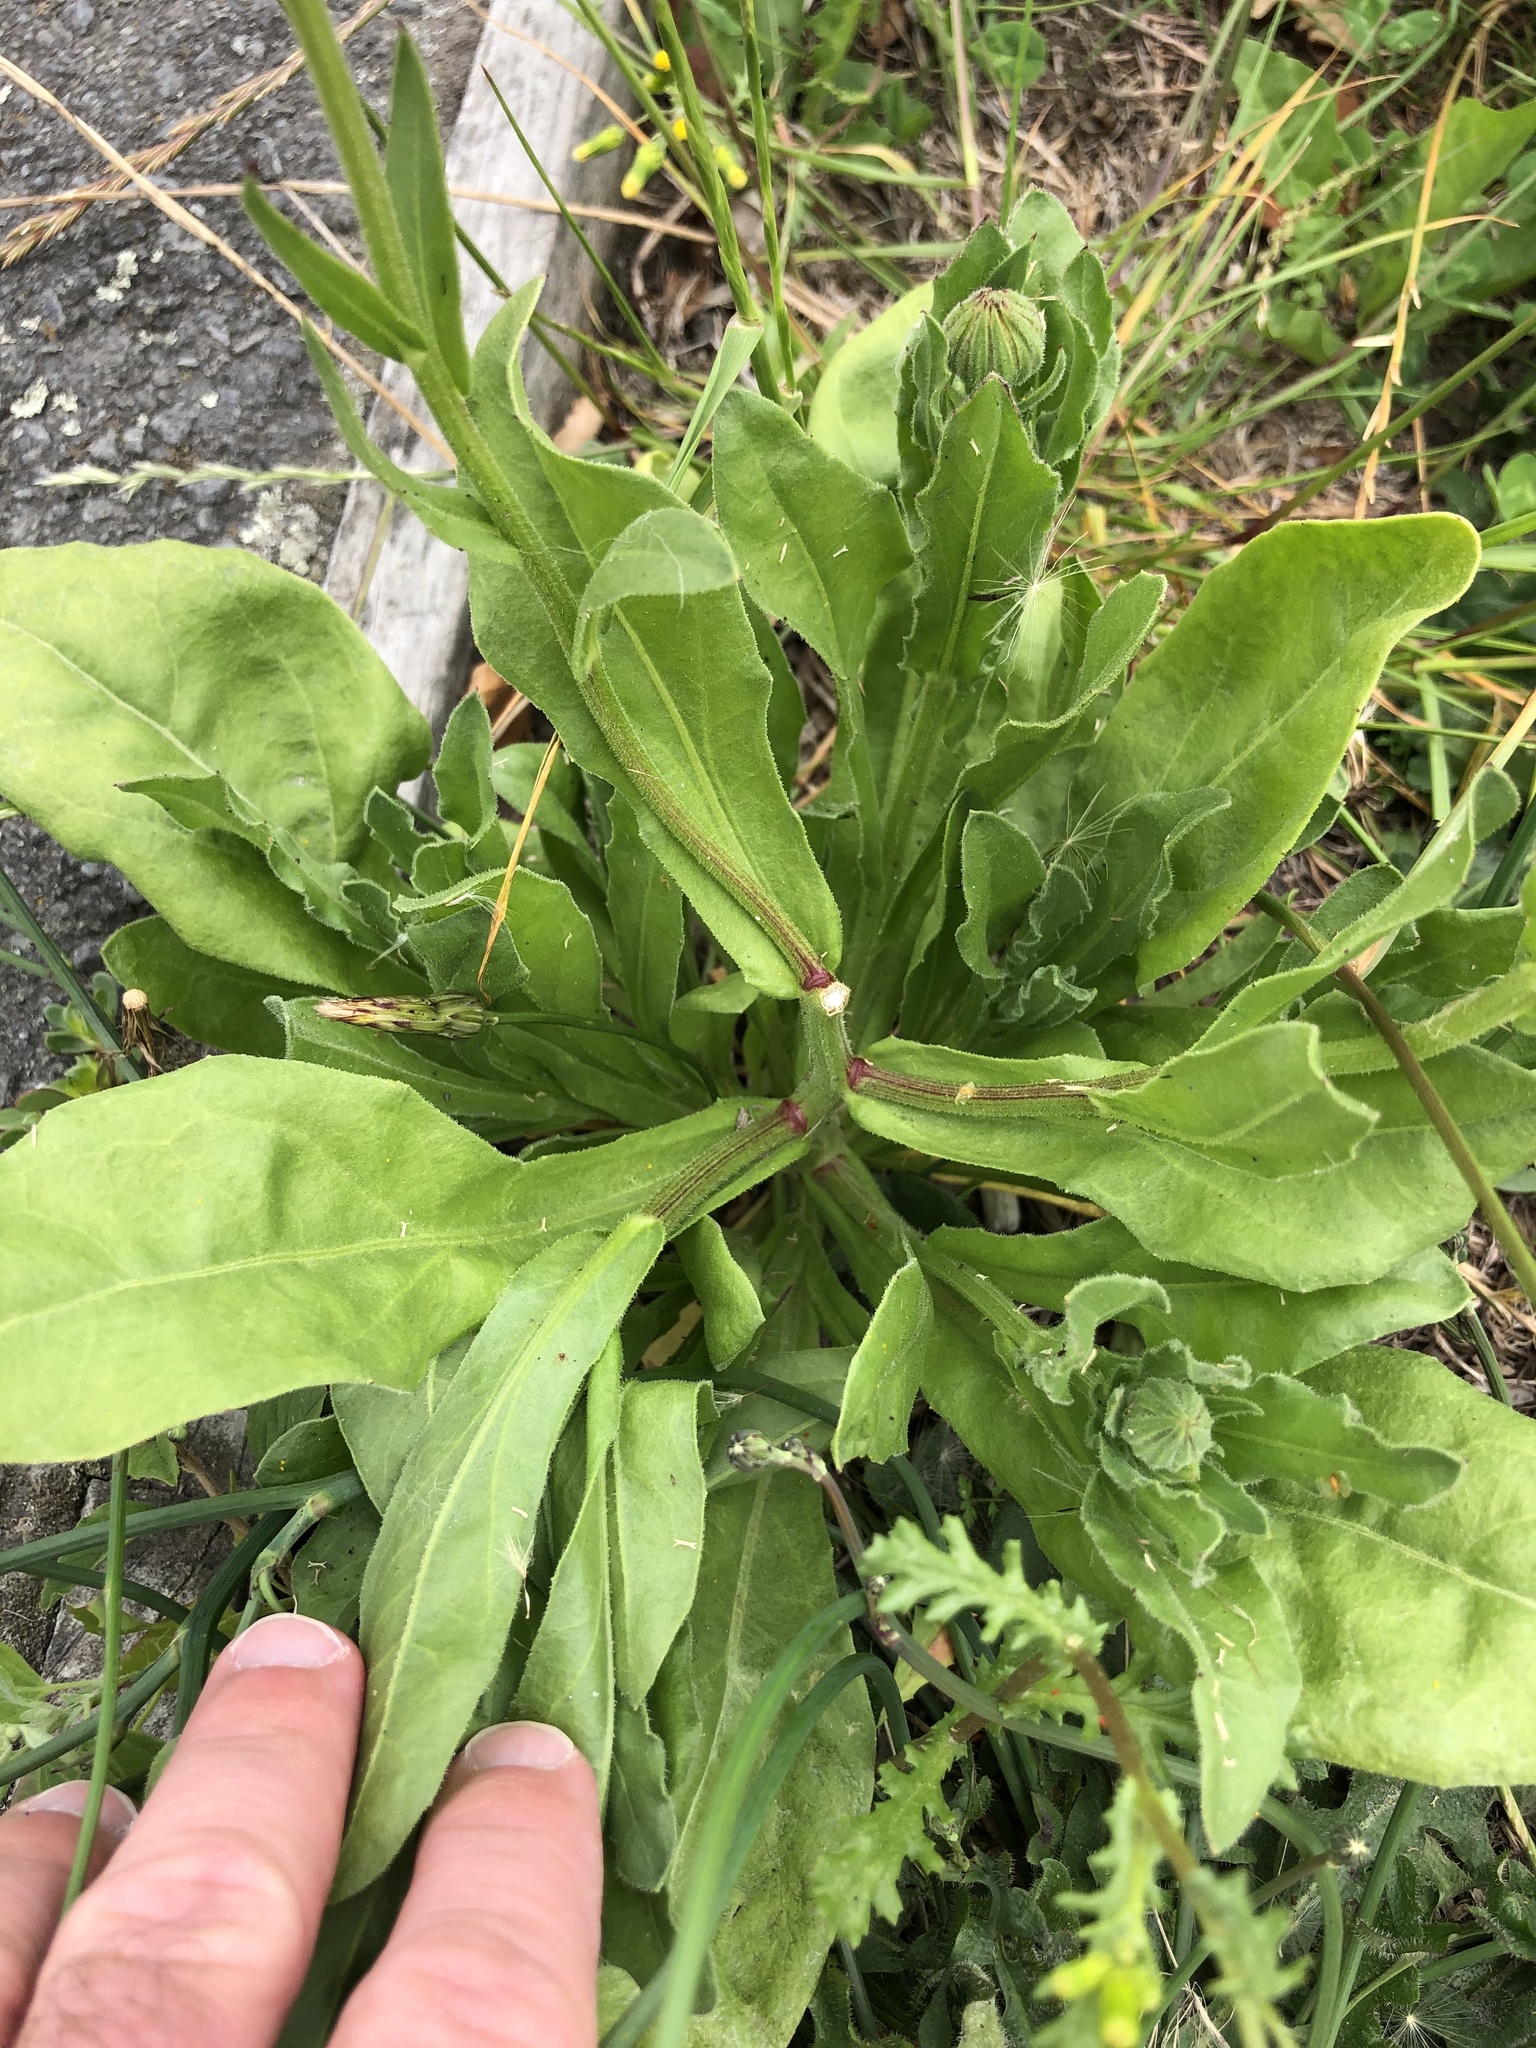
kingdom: Plantae
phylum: Tracheophyta
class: Magnoliopsida
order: Asterales
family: Asteraceae
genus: Calendula
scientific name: Calendula officinalis
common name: Pot marigold
